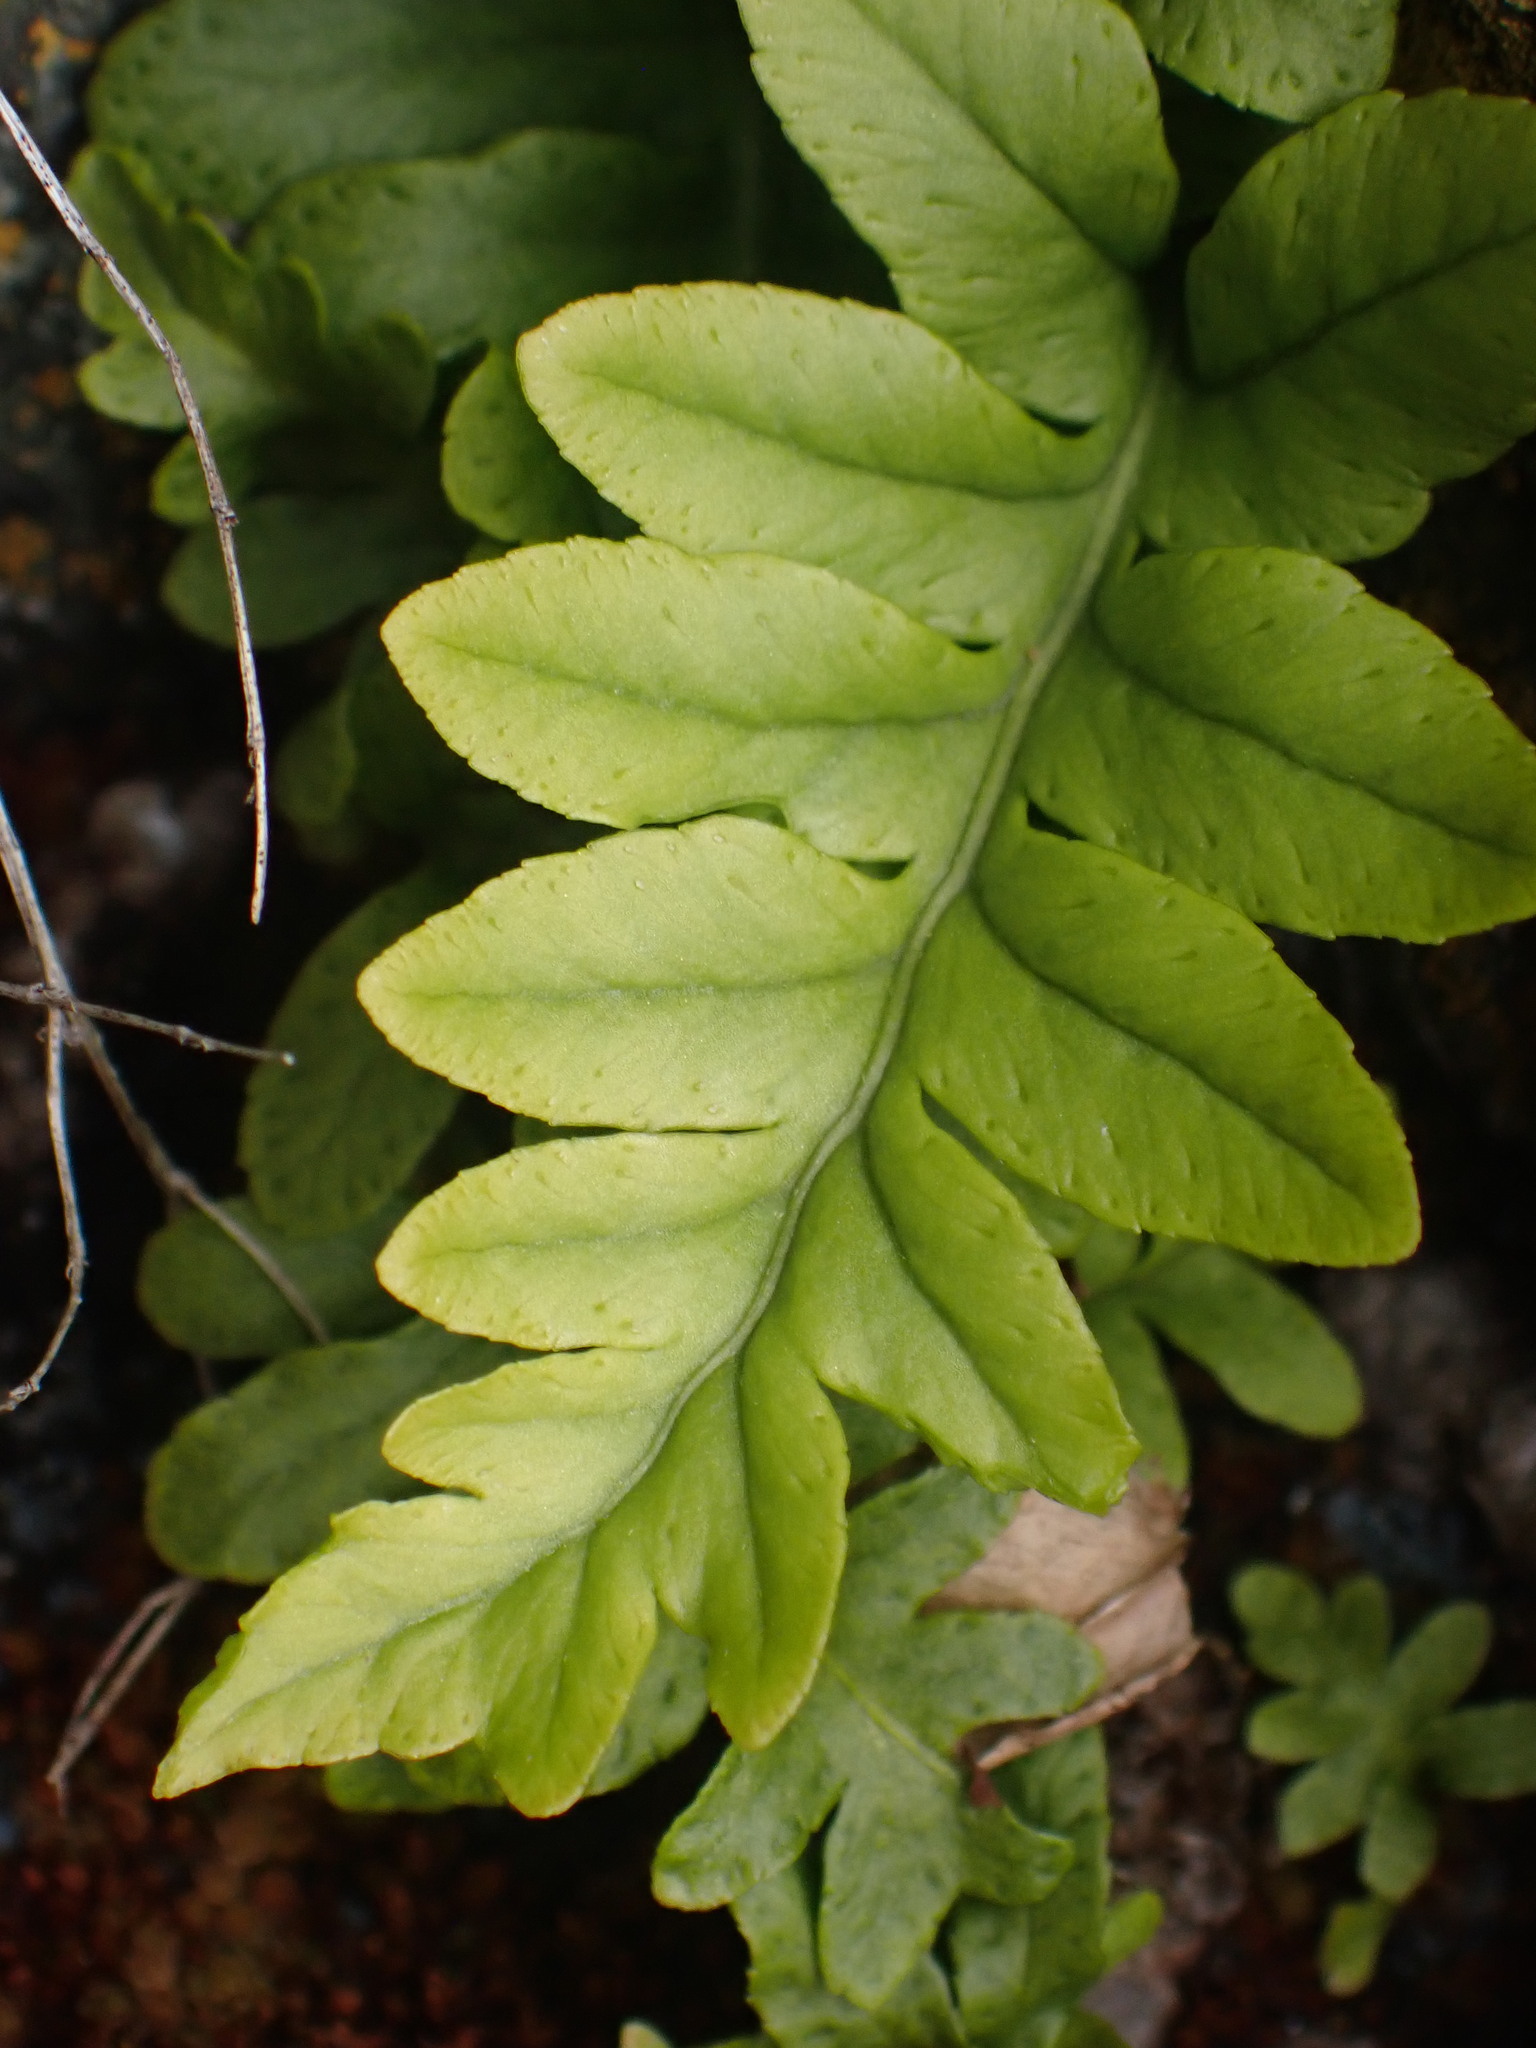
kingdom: Plantae
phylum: Tracheophyta
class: Polypodiopsida
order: Polypodiales
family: Polypodiaceae
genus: Polypodium
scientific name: Polypodium glycyrrhiza
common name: Licorice fern
